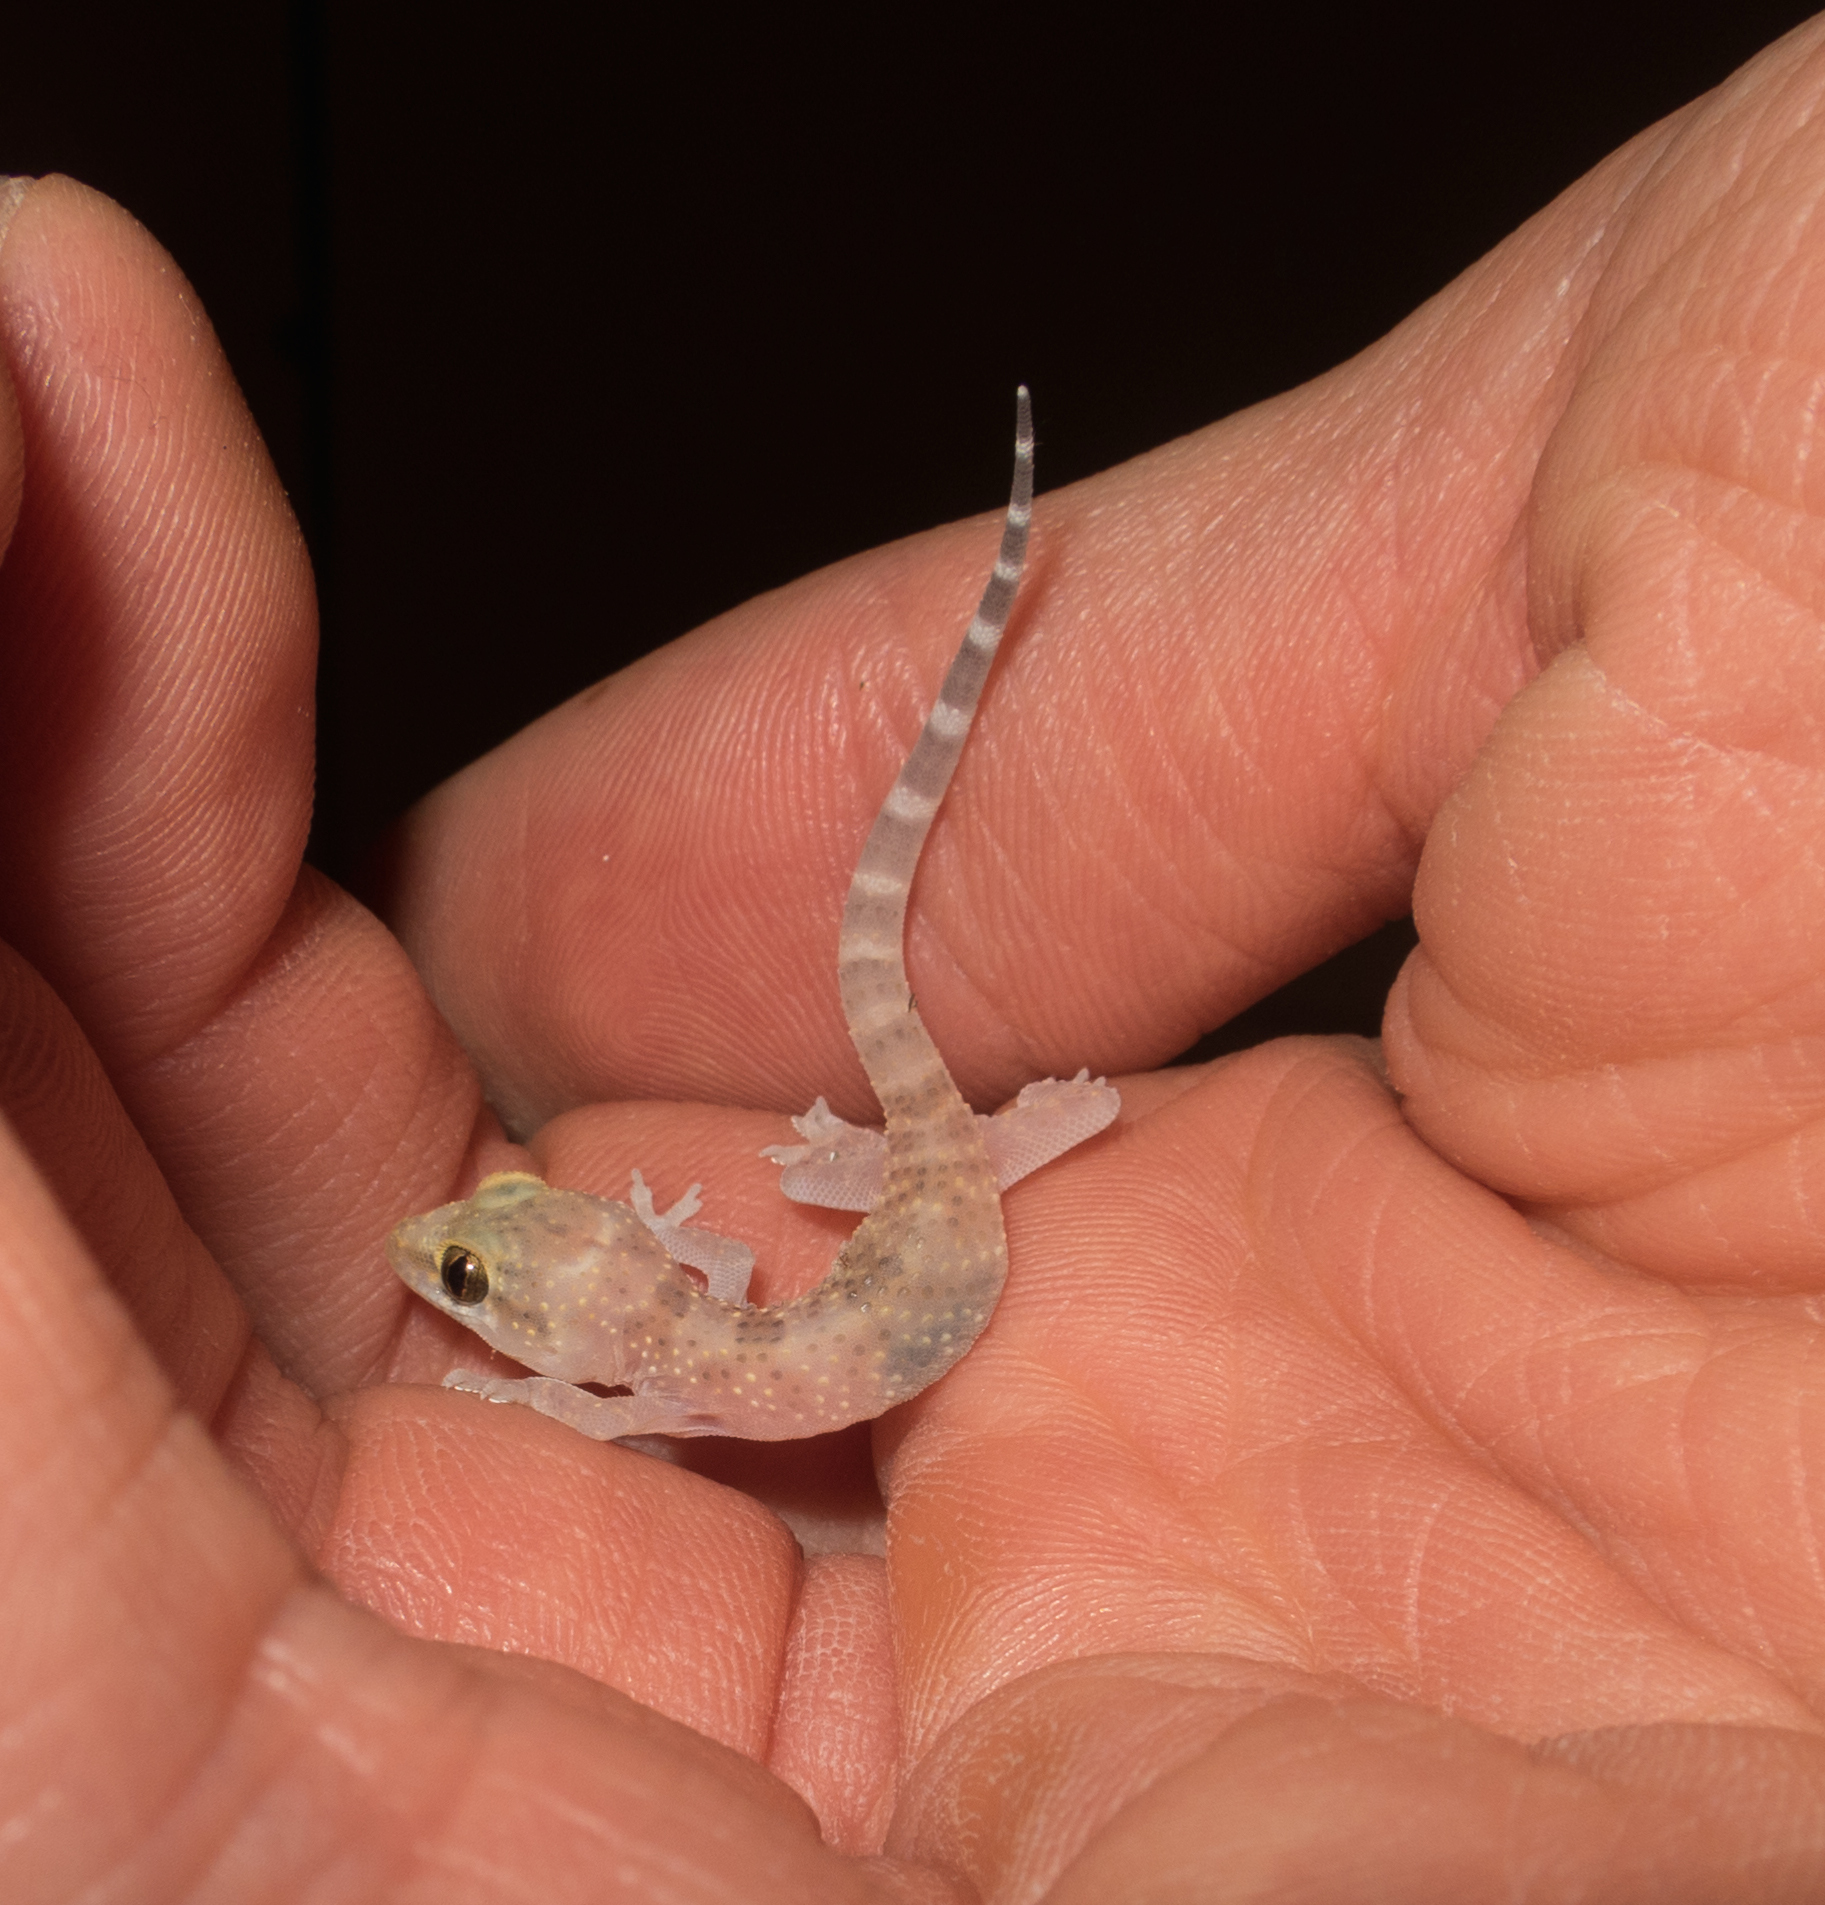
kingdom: Animalia
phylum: Chordata
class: Squamata
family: Gekkonidae
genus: Hemidactylus
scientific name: Hemidactylus turcicus
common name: Turkish gecko
